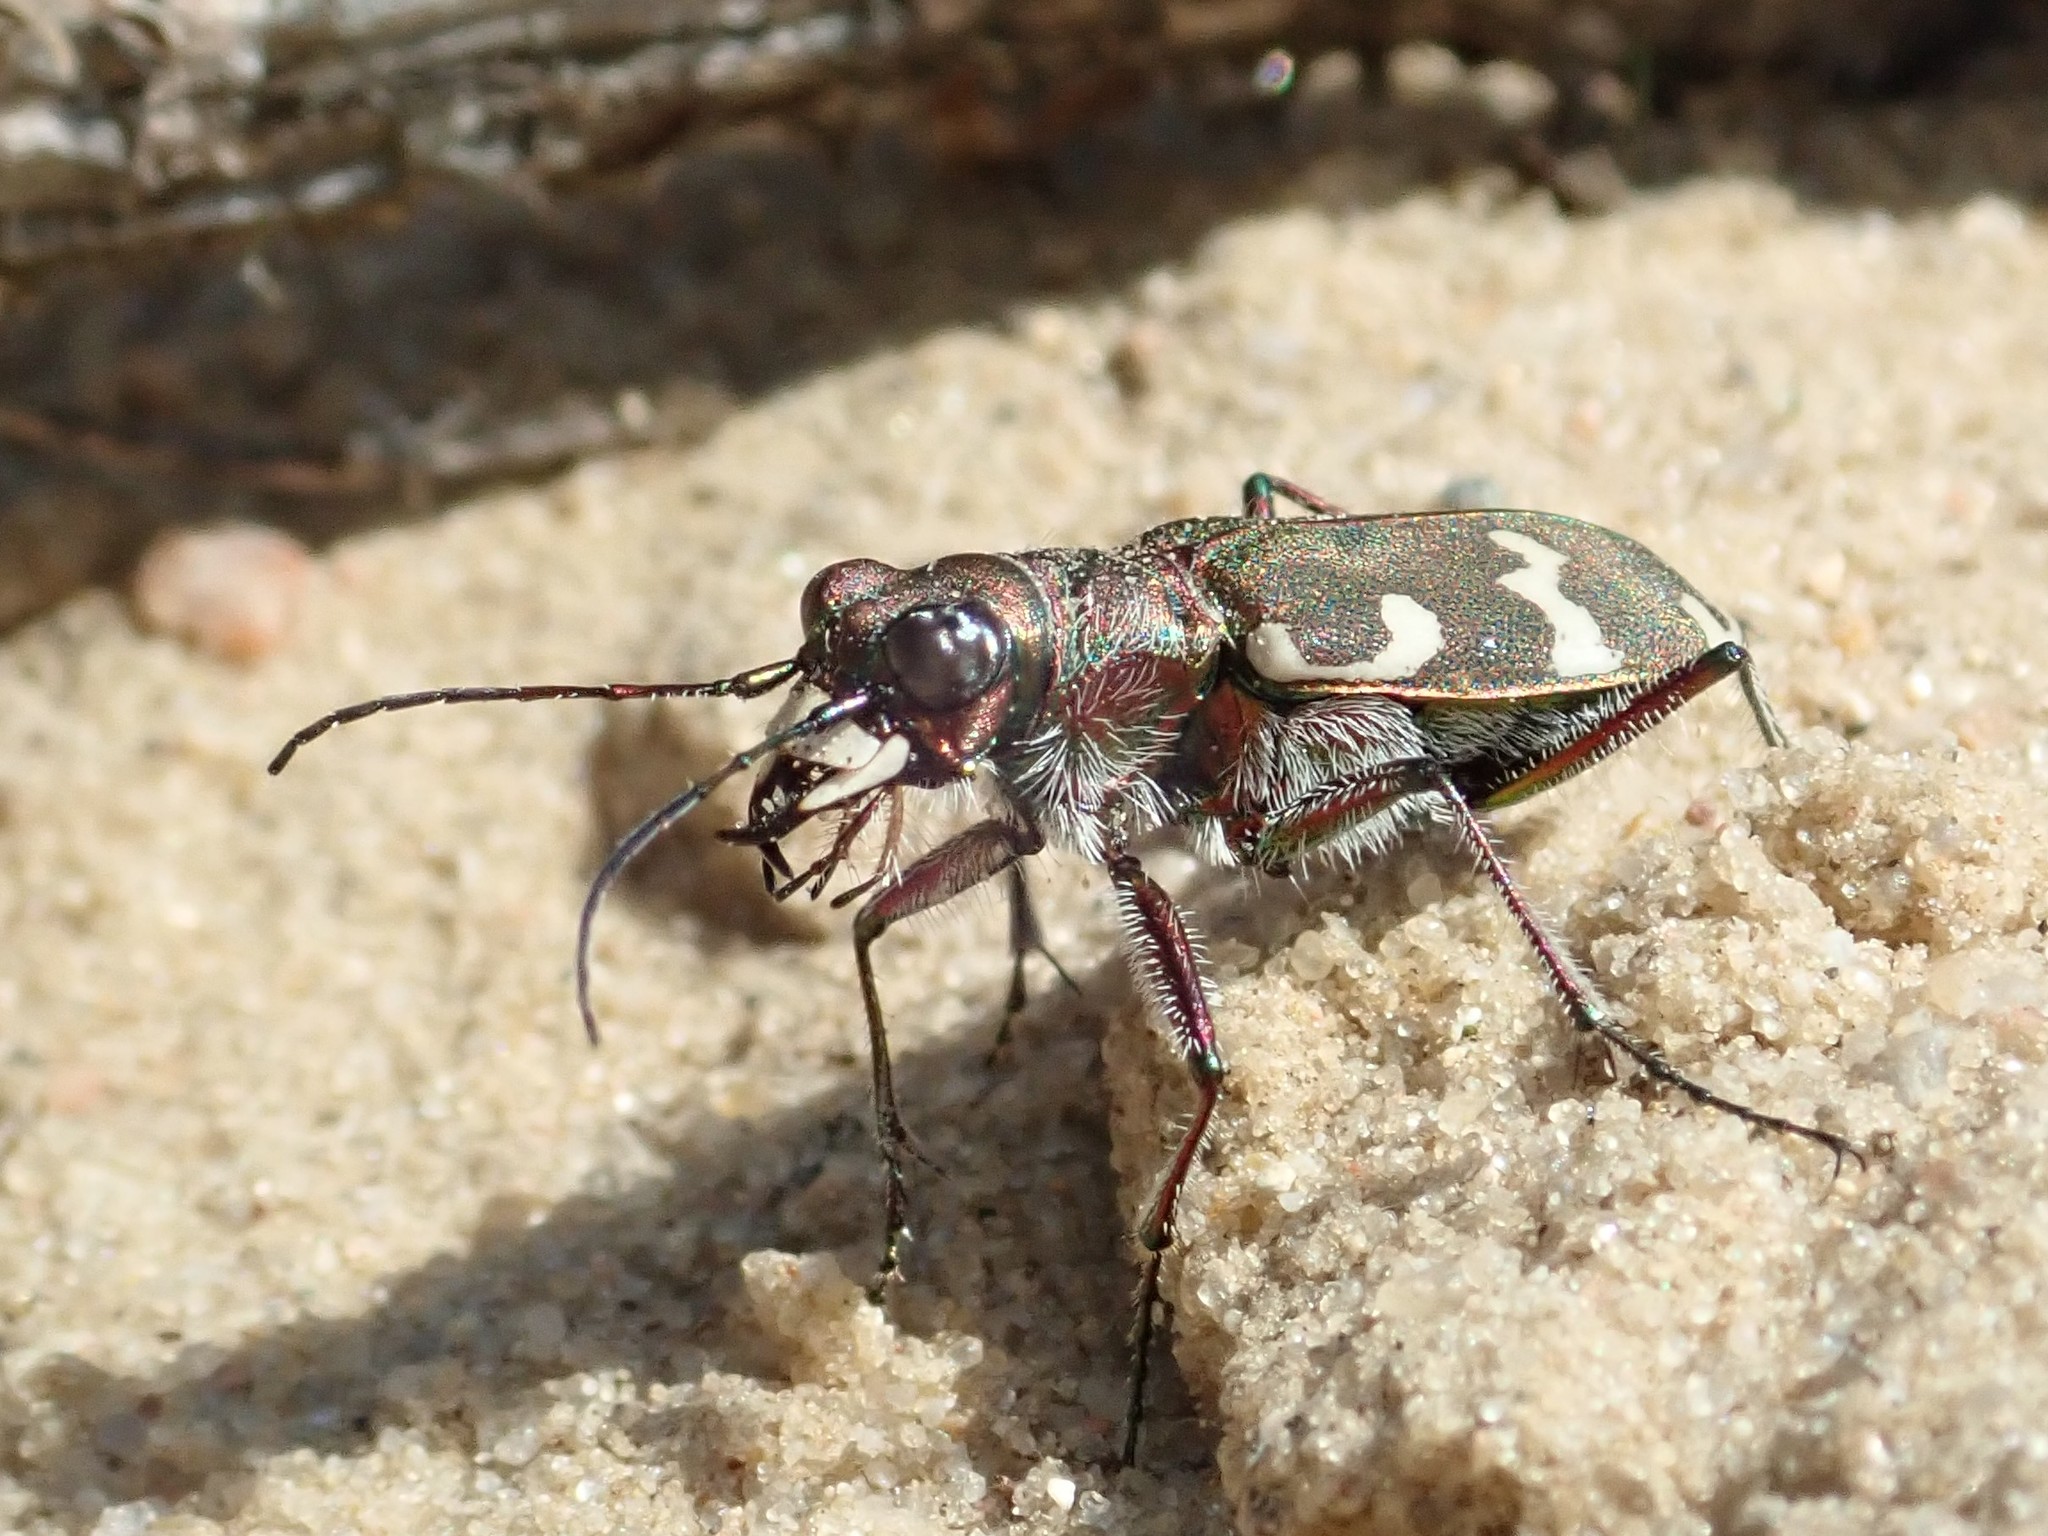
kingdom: Animalia
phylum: Arthropoda
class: Insecta
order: Coleoptera
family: Carabidae
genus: Cicindela
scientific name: Cicindela hybrida
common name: Northern dune tiger beetle
